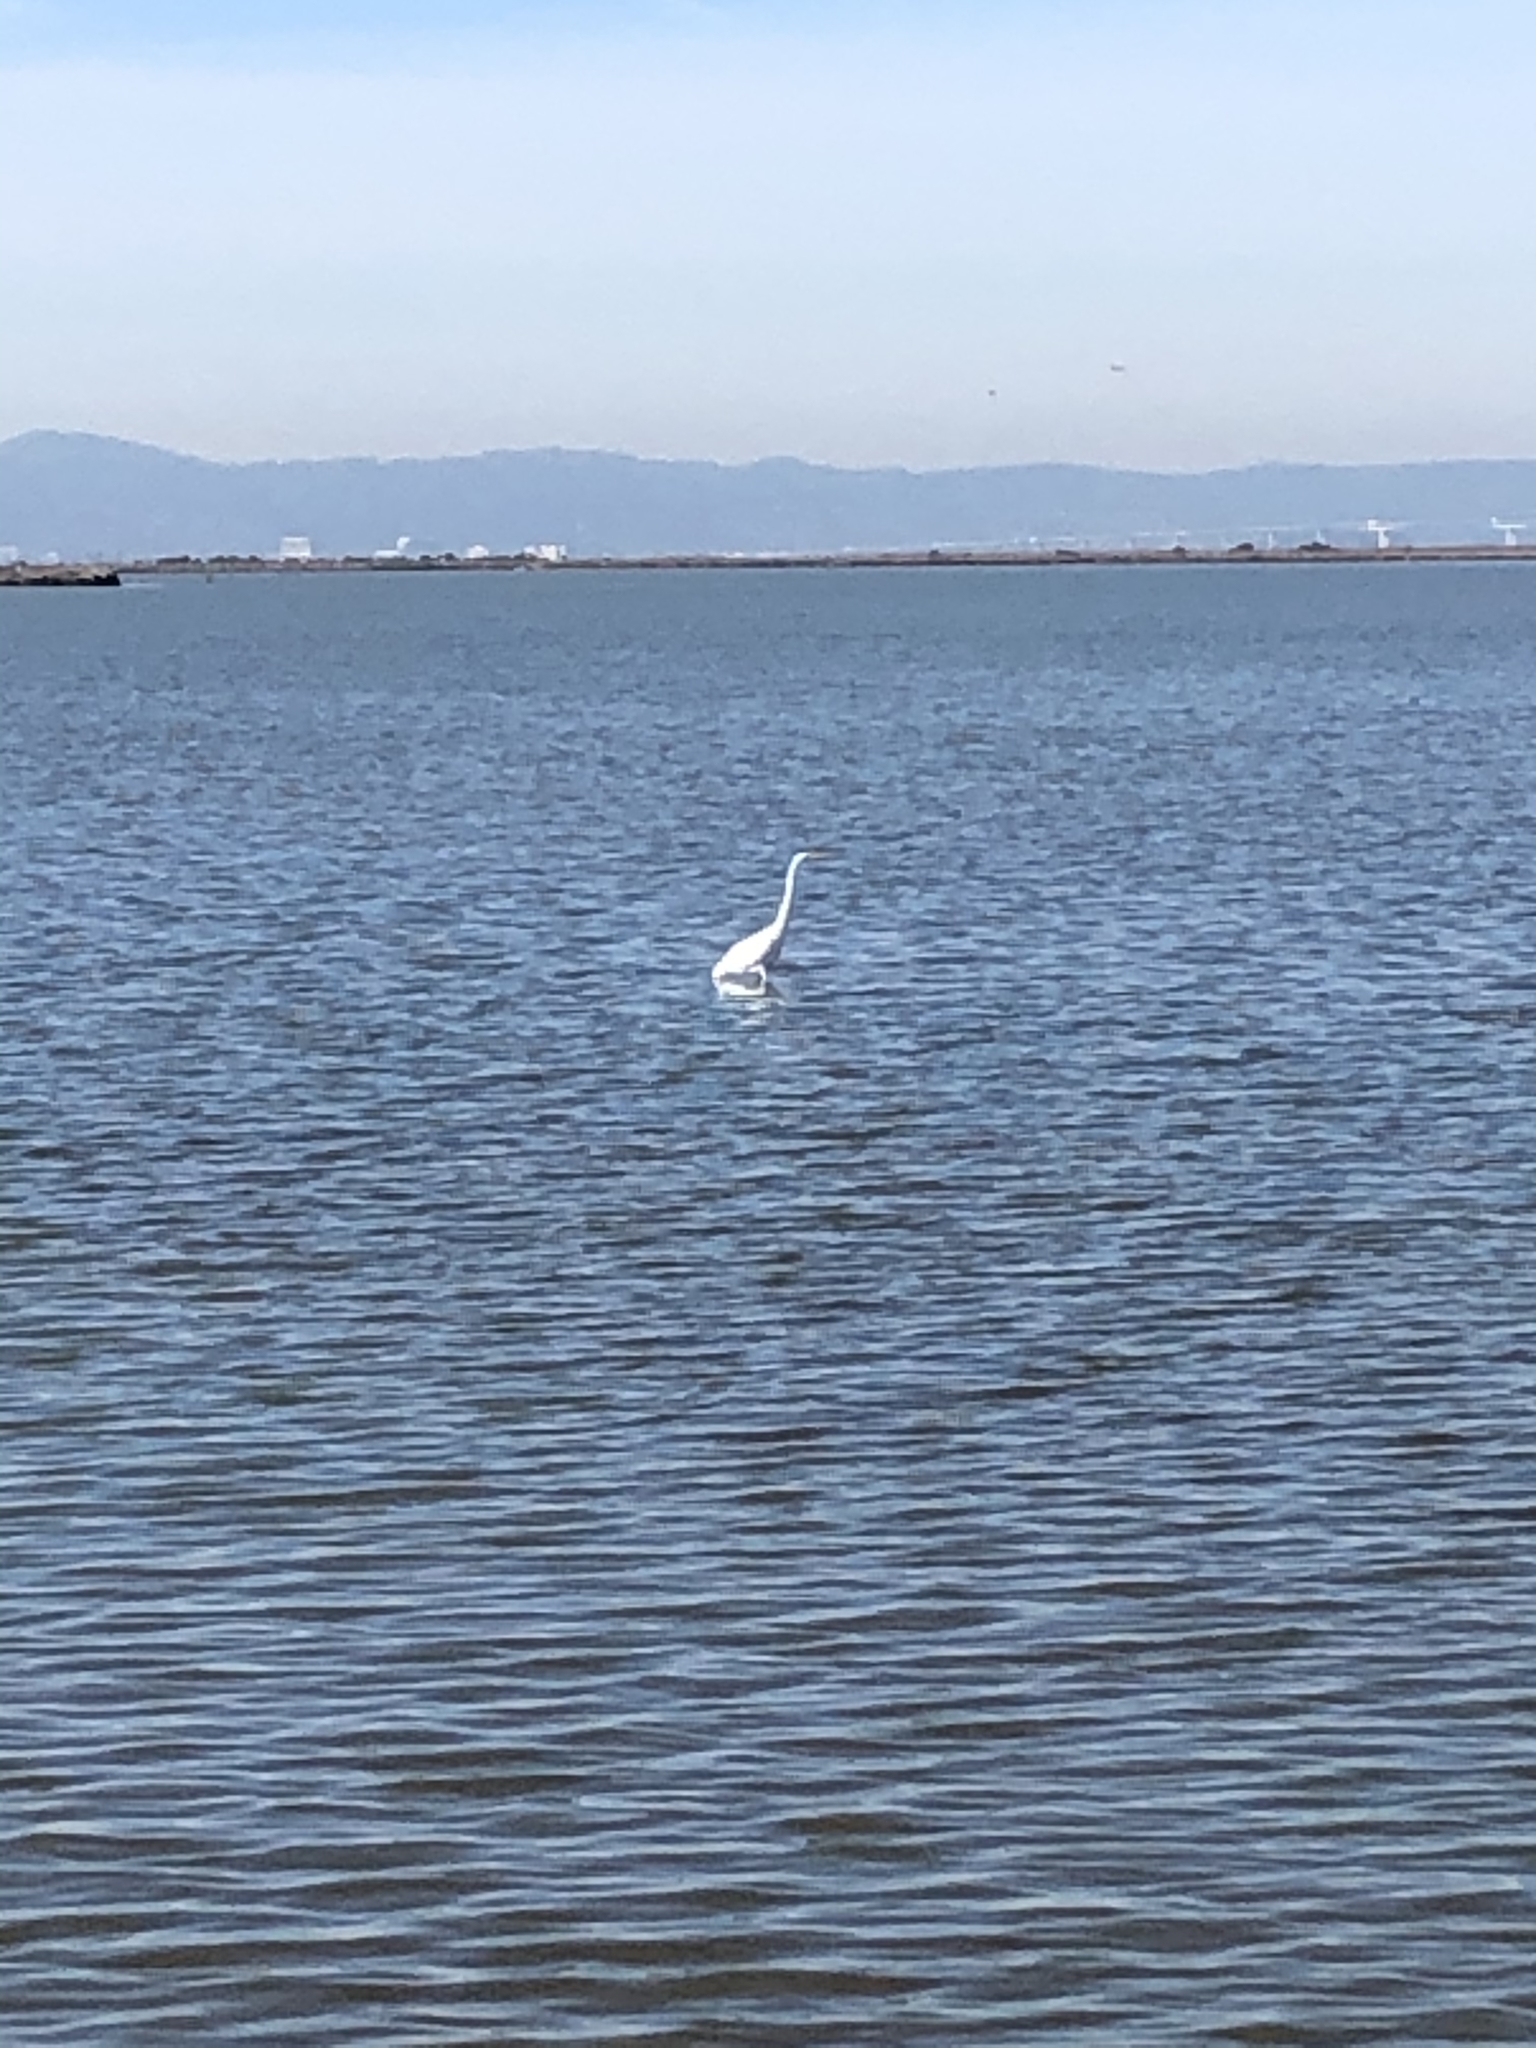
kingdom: Animalia
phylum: Chordata
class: Aves
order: Pelecaniformes
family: Ardeidae
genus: Ardea
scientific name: Ardea alba
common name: Great egret
